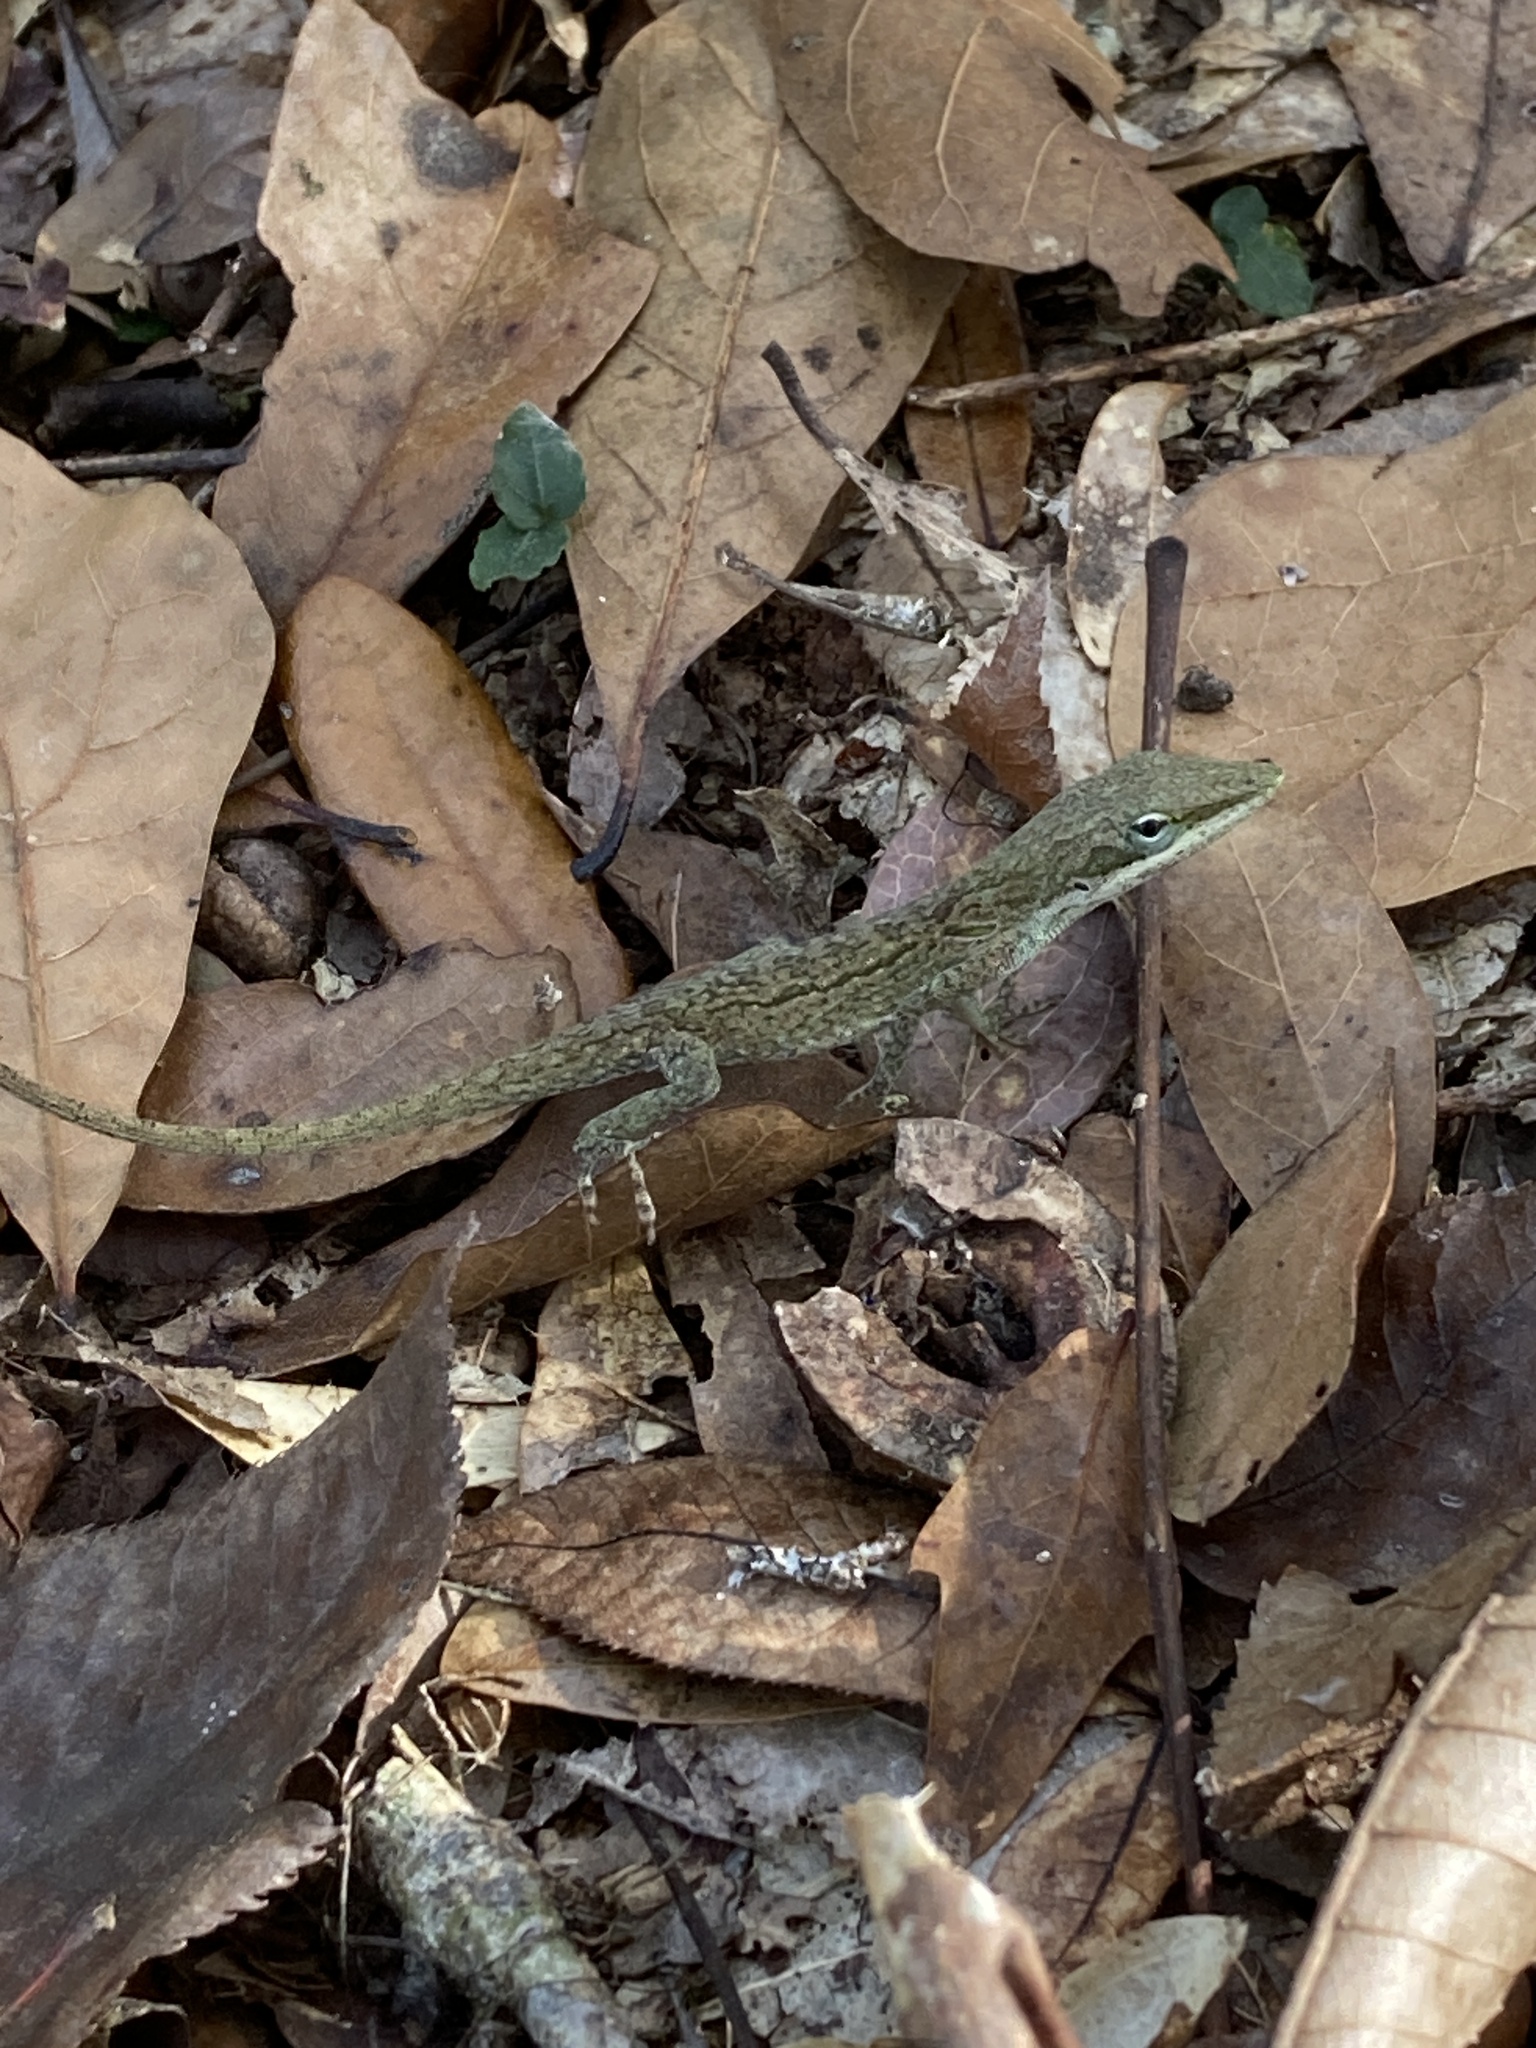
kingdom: Animalia
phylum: Chordata
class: Squamata
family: Dactyloidae
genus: Anolis
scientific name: Anolis carolinensis
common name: Green anole
